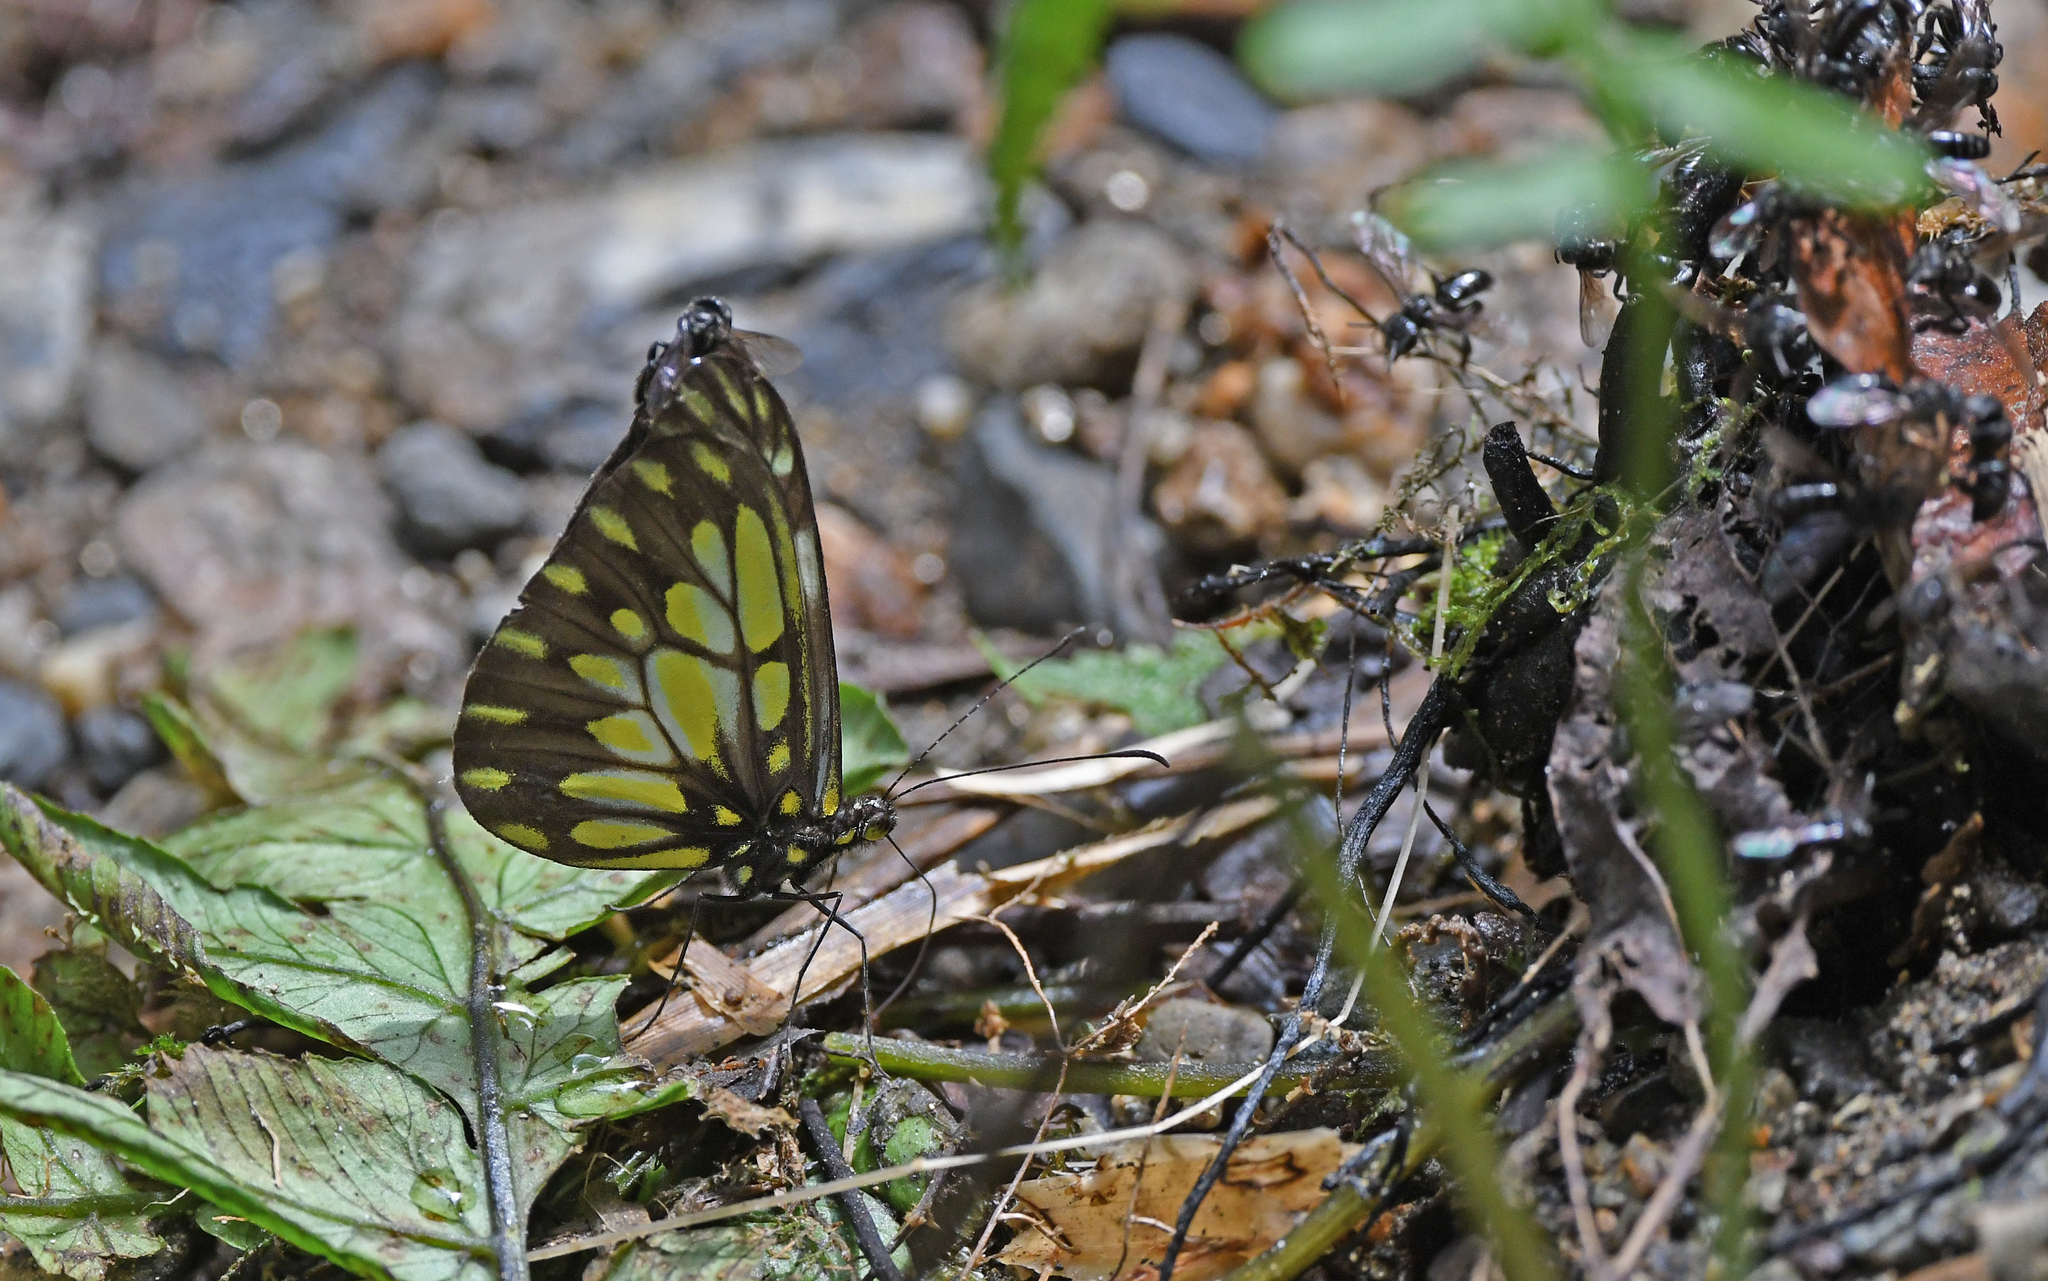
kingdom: Animalia
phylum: Arthropoda
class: Insecta
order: Lepidoptera
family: Pieridae
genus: Dismorphia
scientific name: Dismorphia lygdamis
